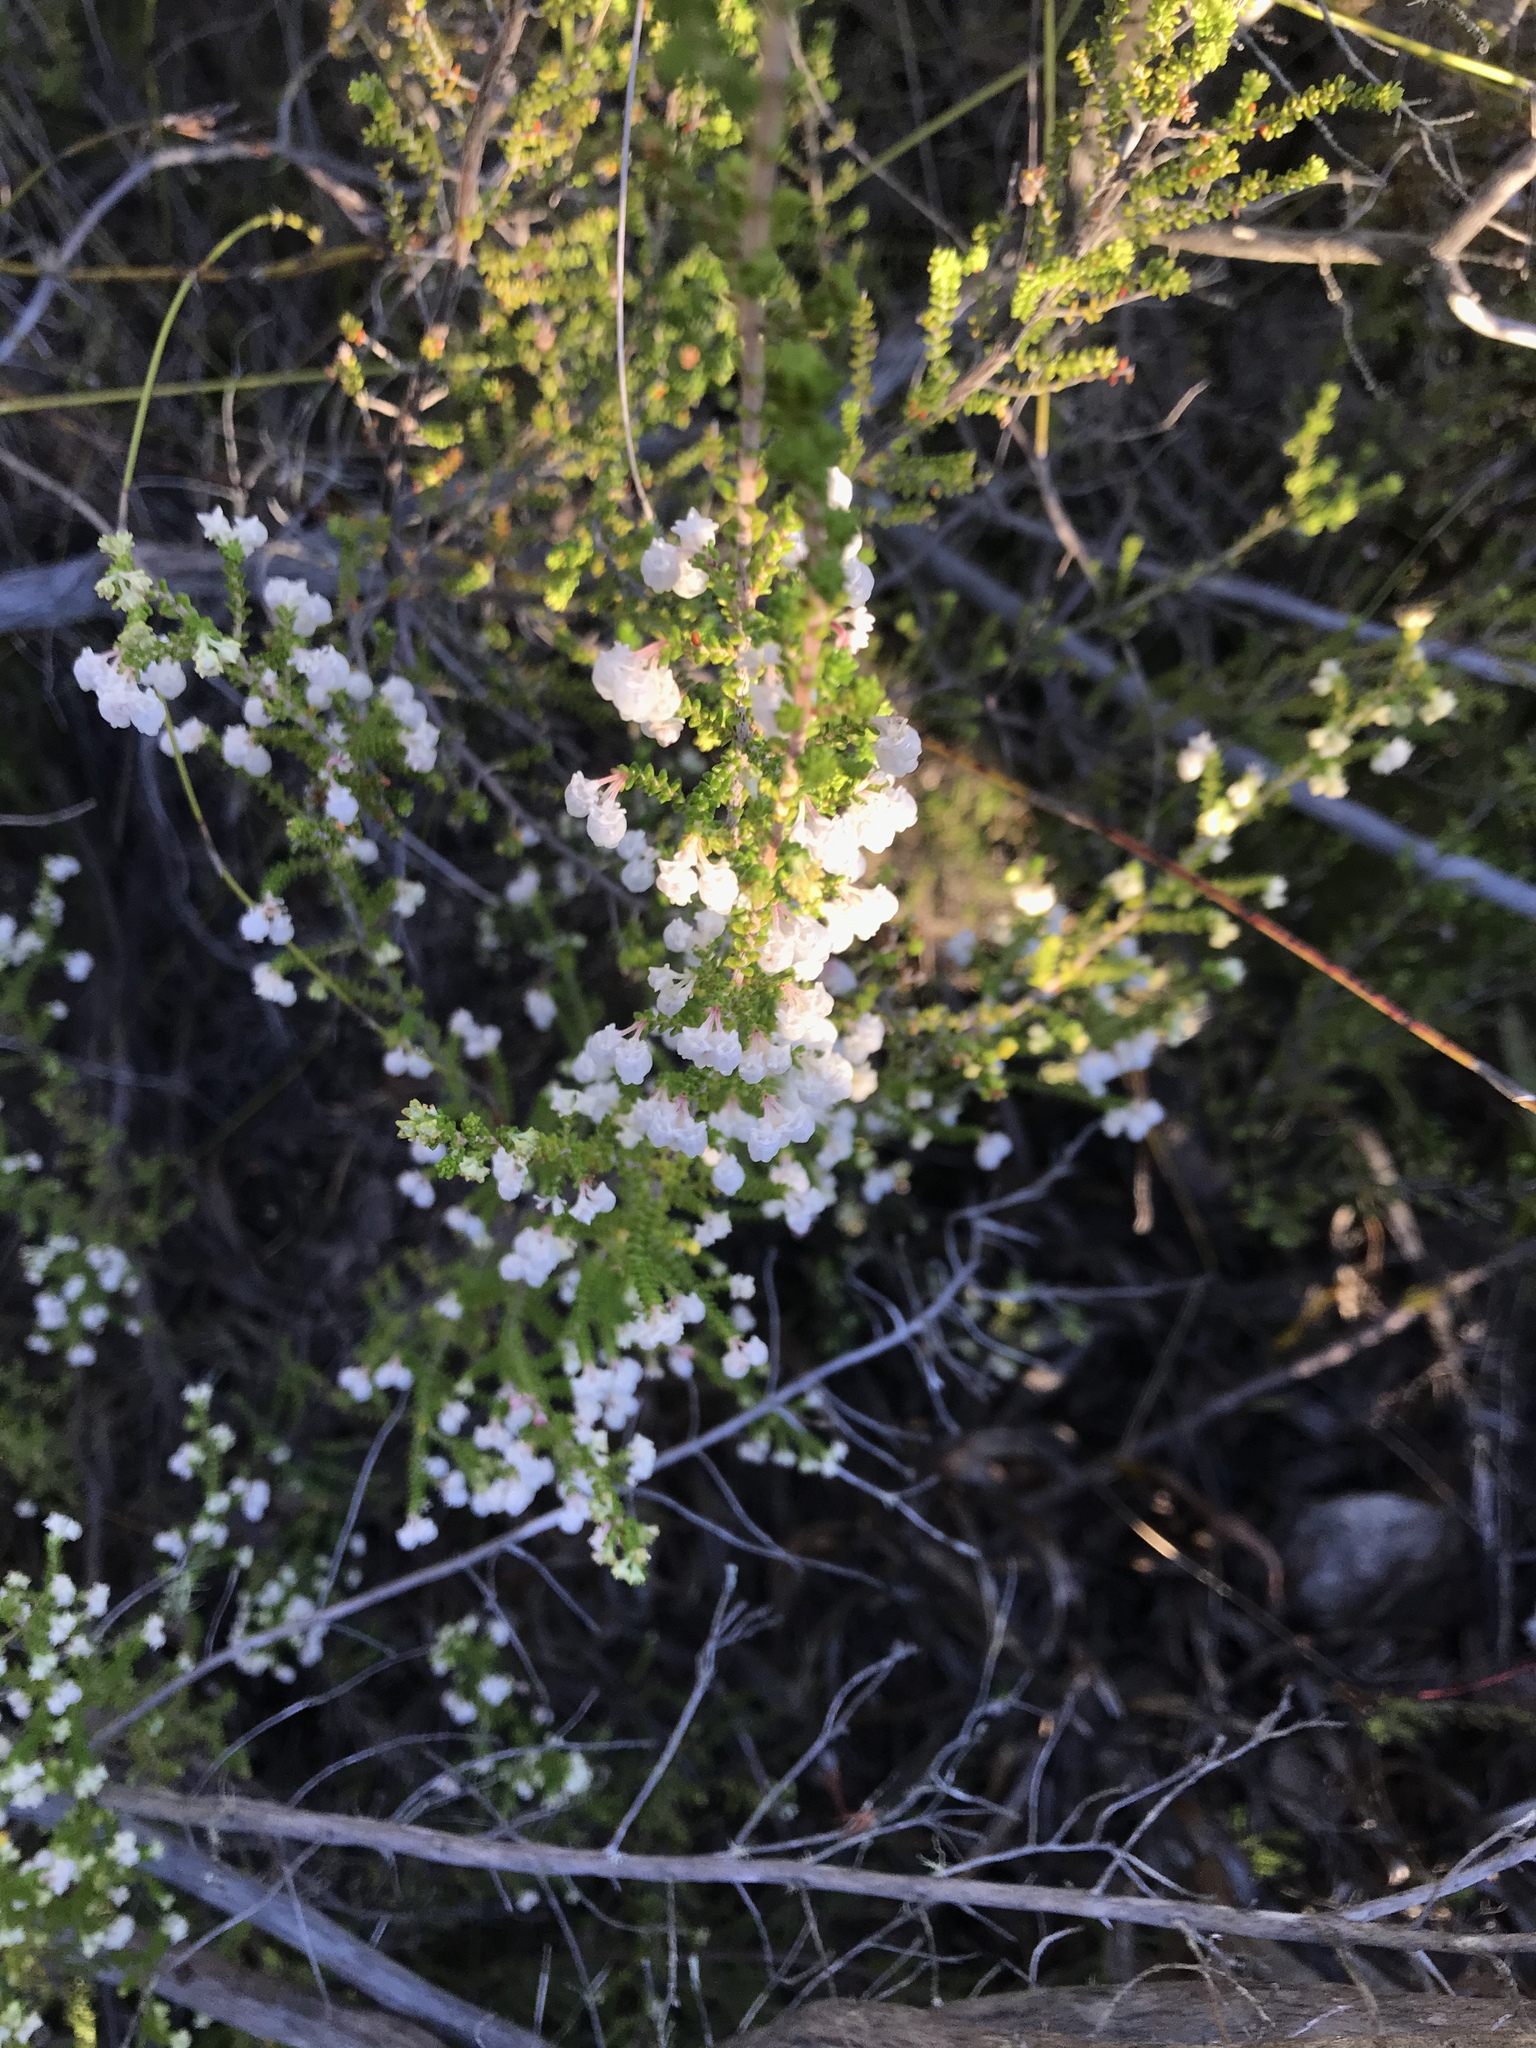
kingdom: Plantae
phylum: Tracheophyta
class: Magnoliopsida
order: Ericales
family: Ericaceae
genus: Erica
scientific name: Erica formosa
